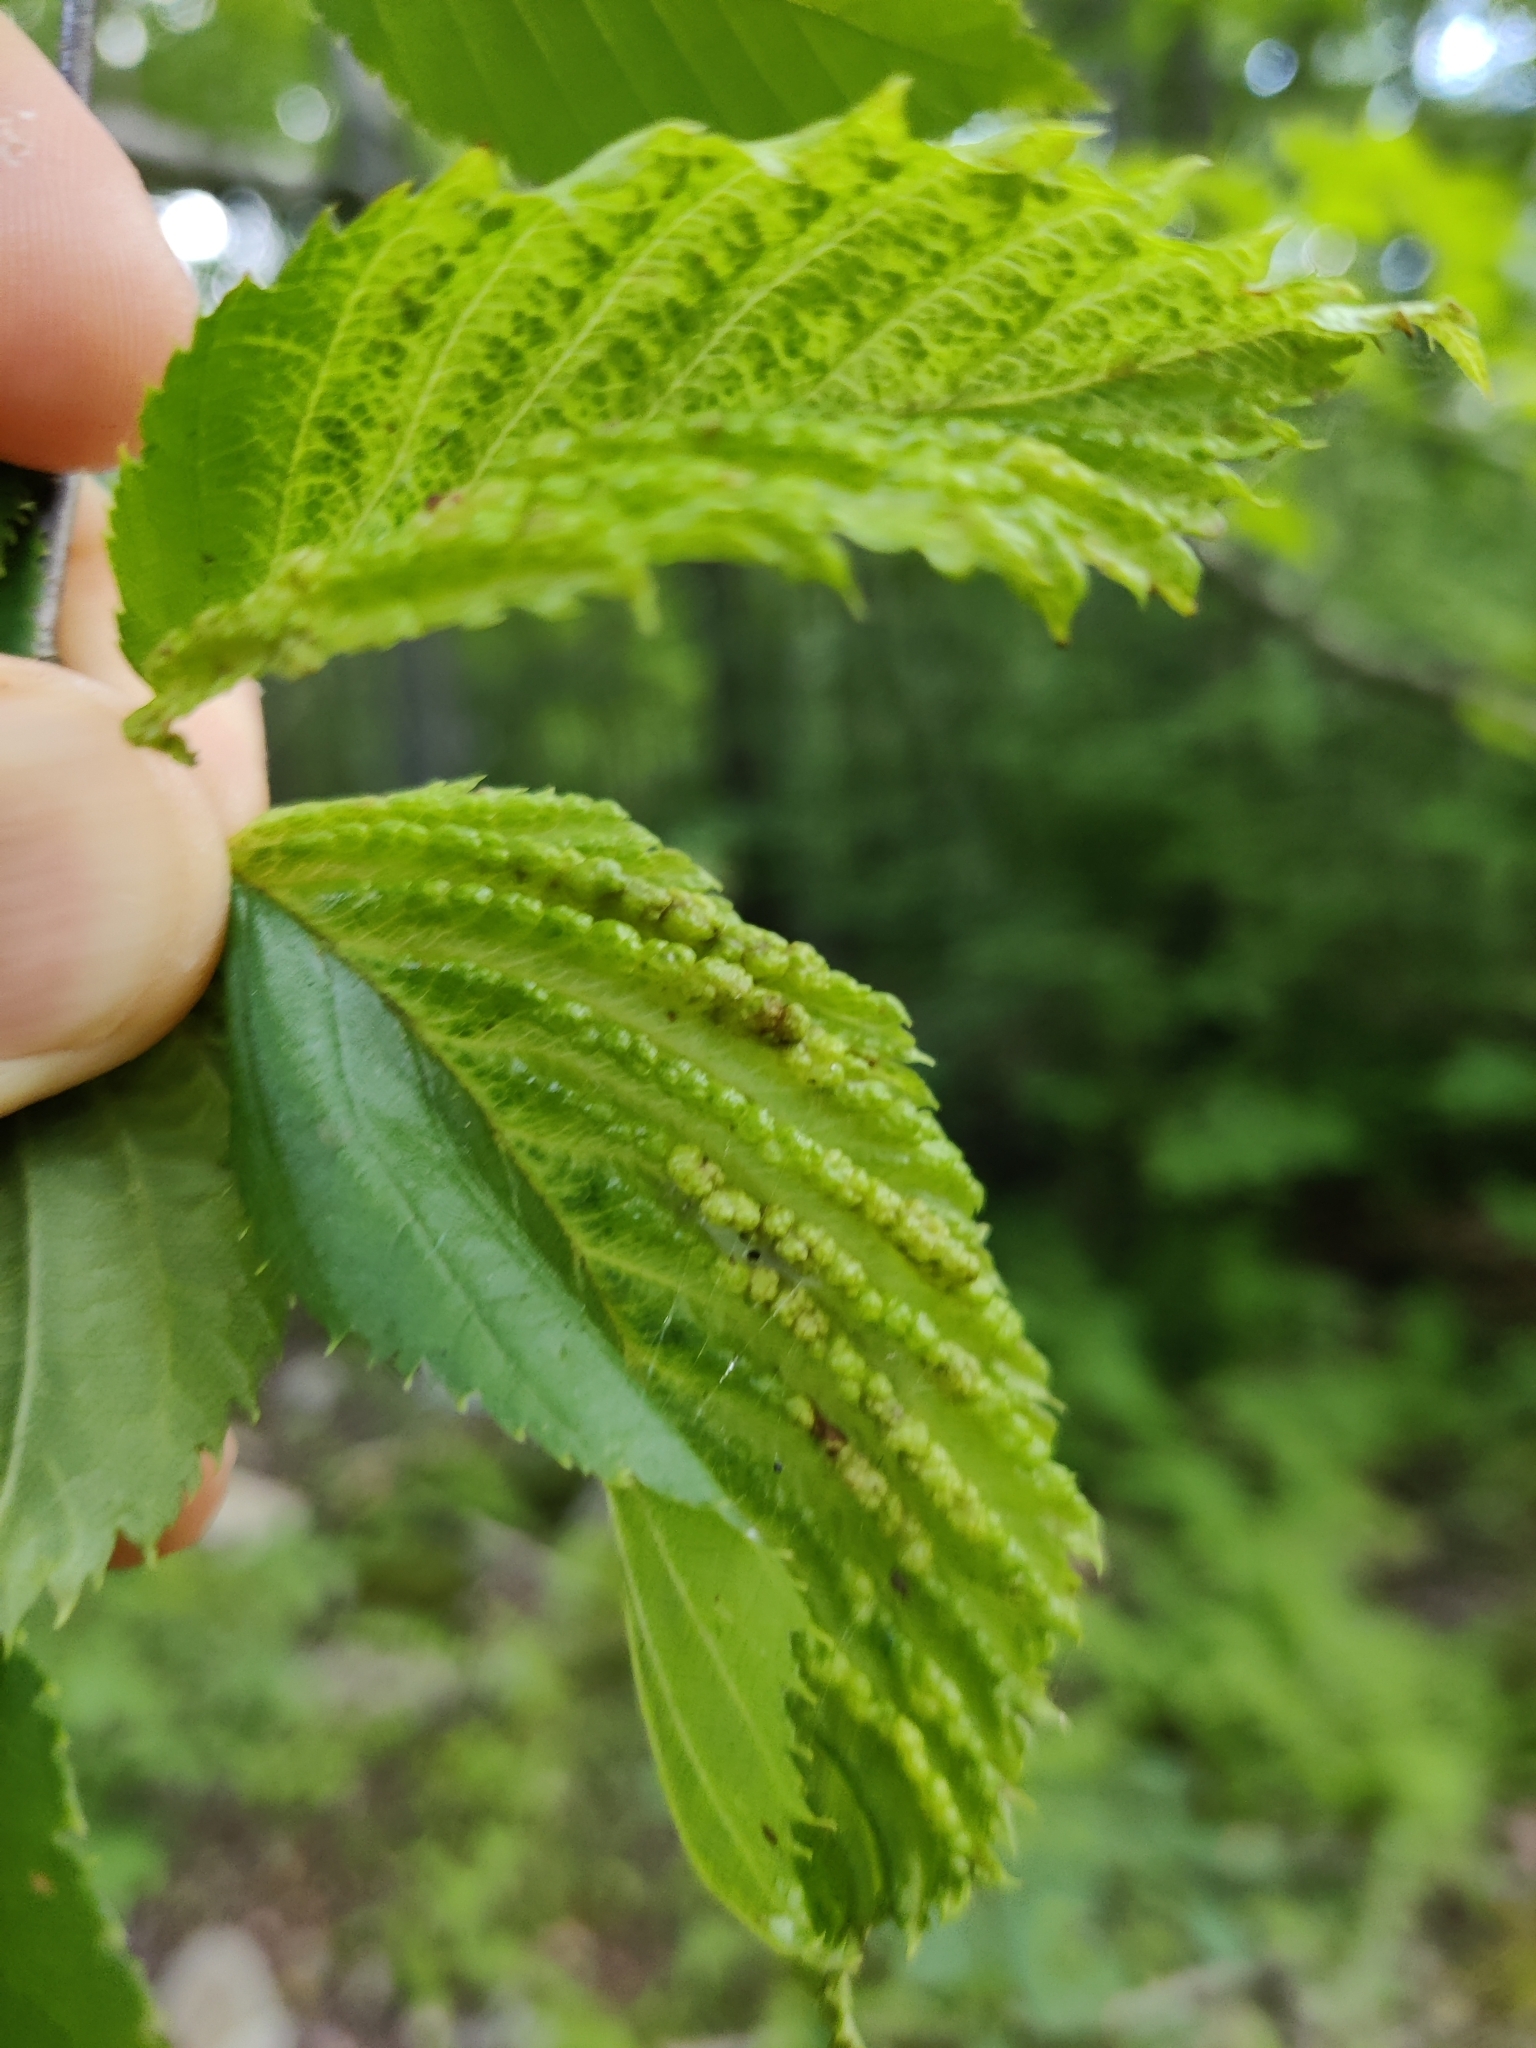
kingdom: Animalia
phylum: Arthropoda
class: Insecta
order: Hemiptera
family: Aphididae
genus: Hamamelistes
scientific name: Hamamelistes spinosus
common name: Witch hazel gall aphid
